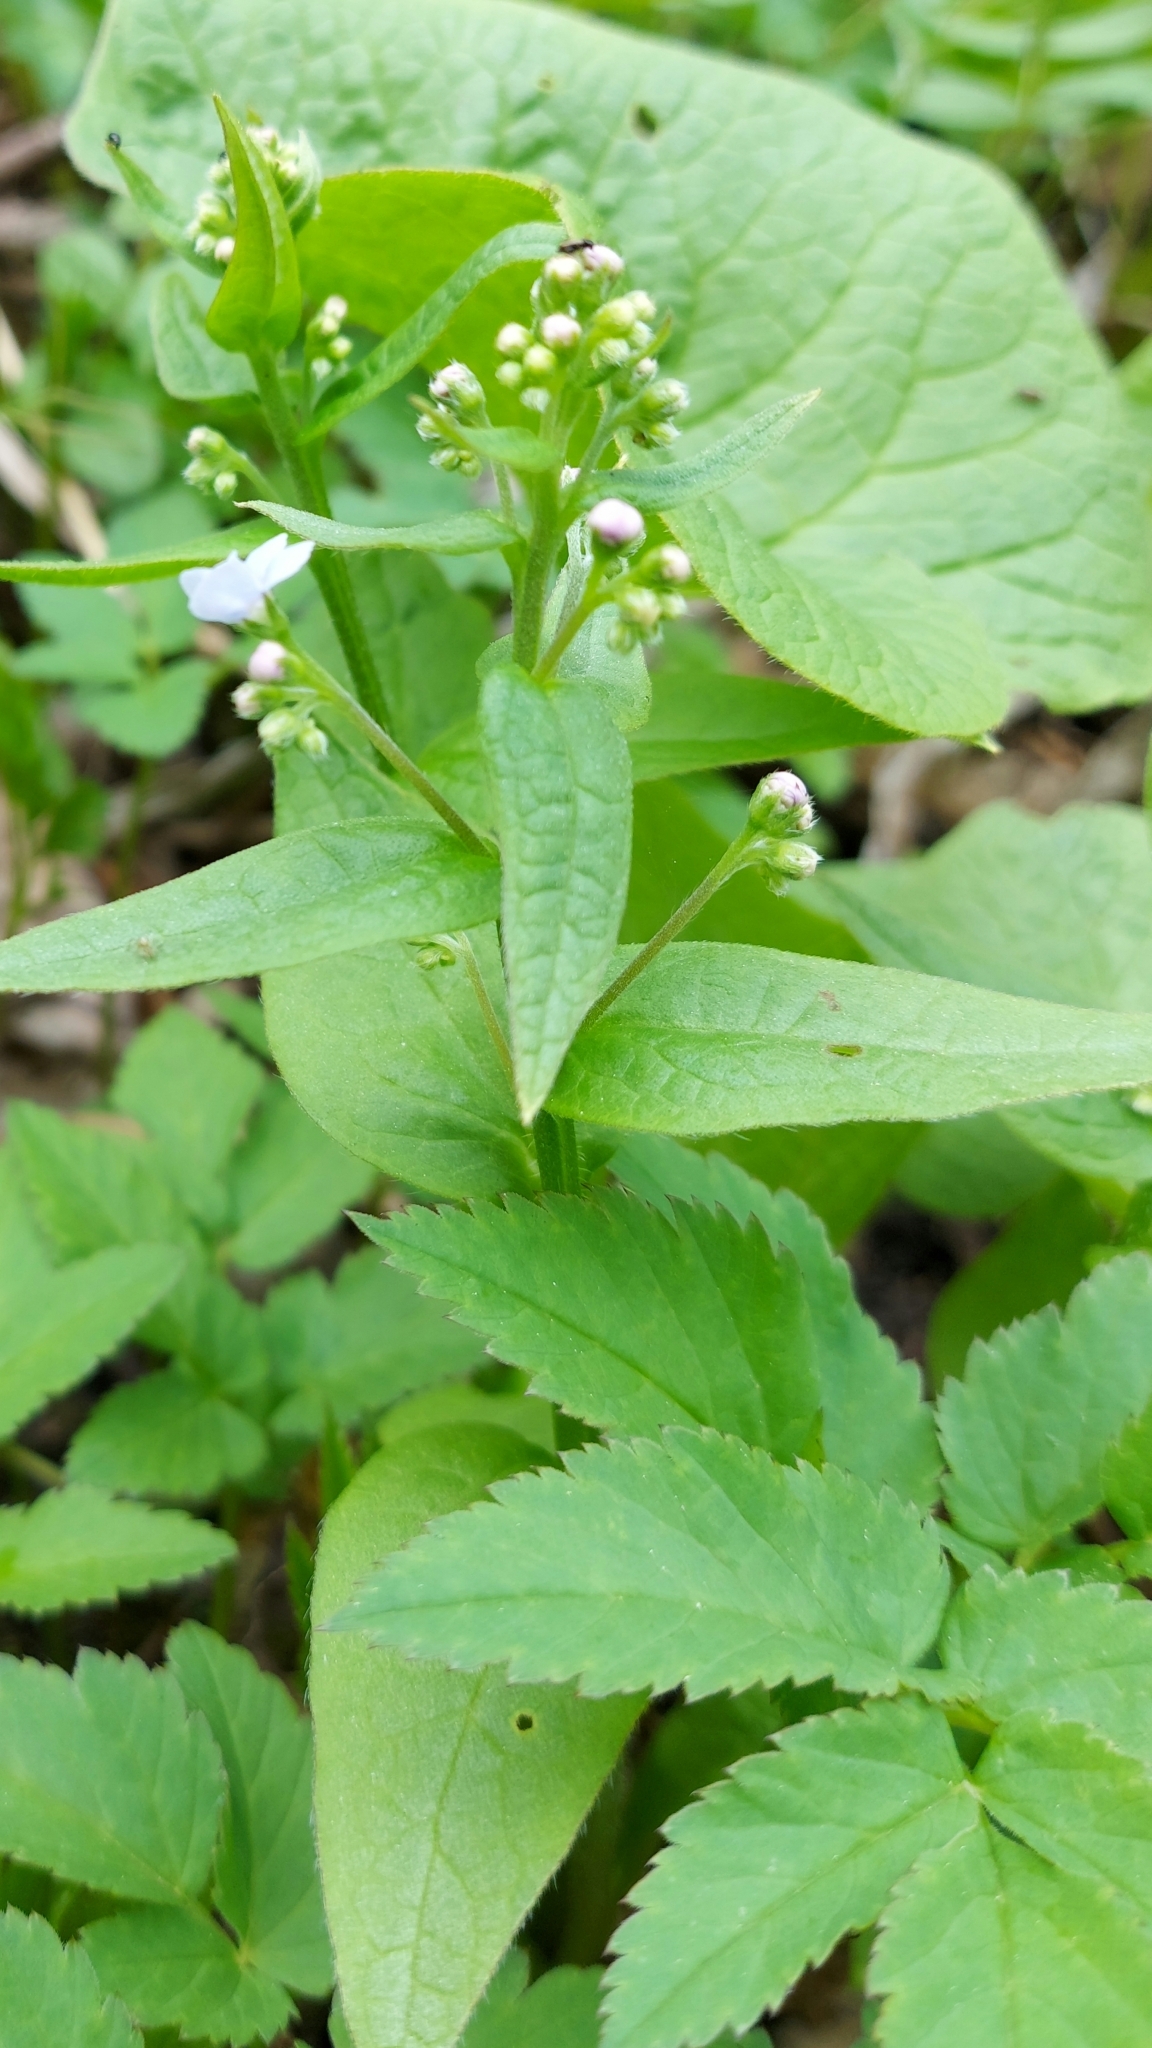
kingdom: Plantae
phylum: Tracheophyta
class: Magnoliopsida
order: Boraginales
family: Boraginaceae
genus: Brunnera
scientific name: Brunnera sibirica
